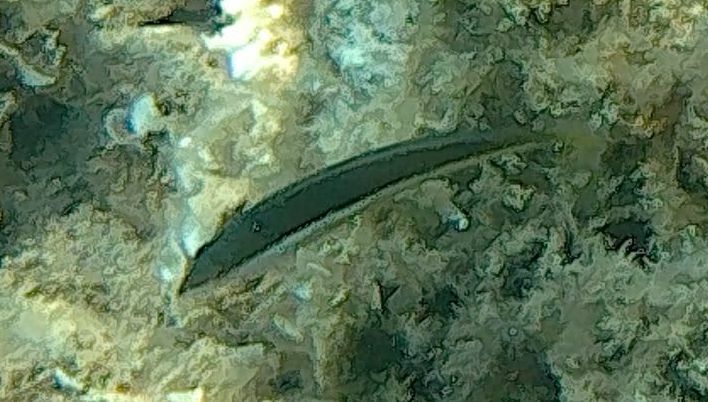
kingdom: Animalia
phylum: Chordata
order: Perciformes
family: Labridae
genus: Coris
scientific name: Coris julis
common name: Rainbow wrasse
